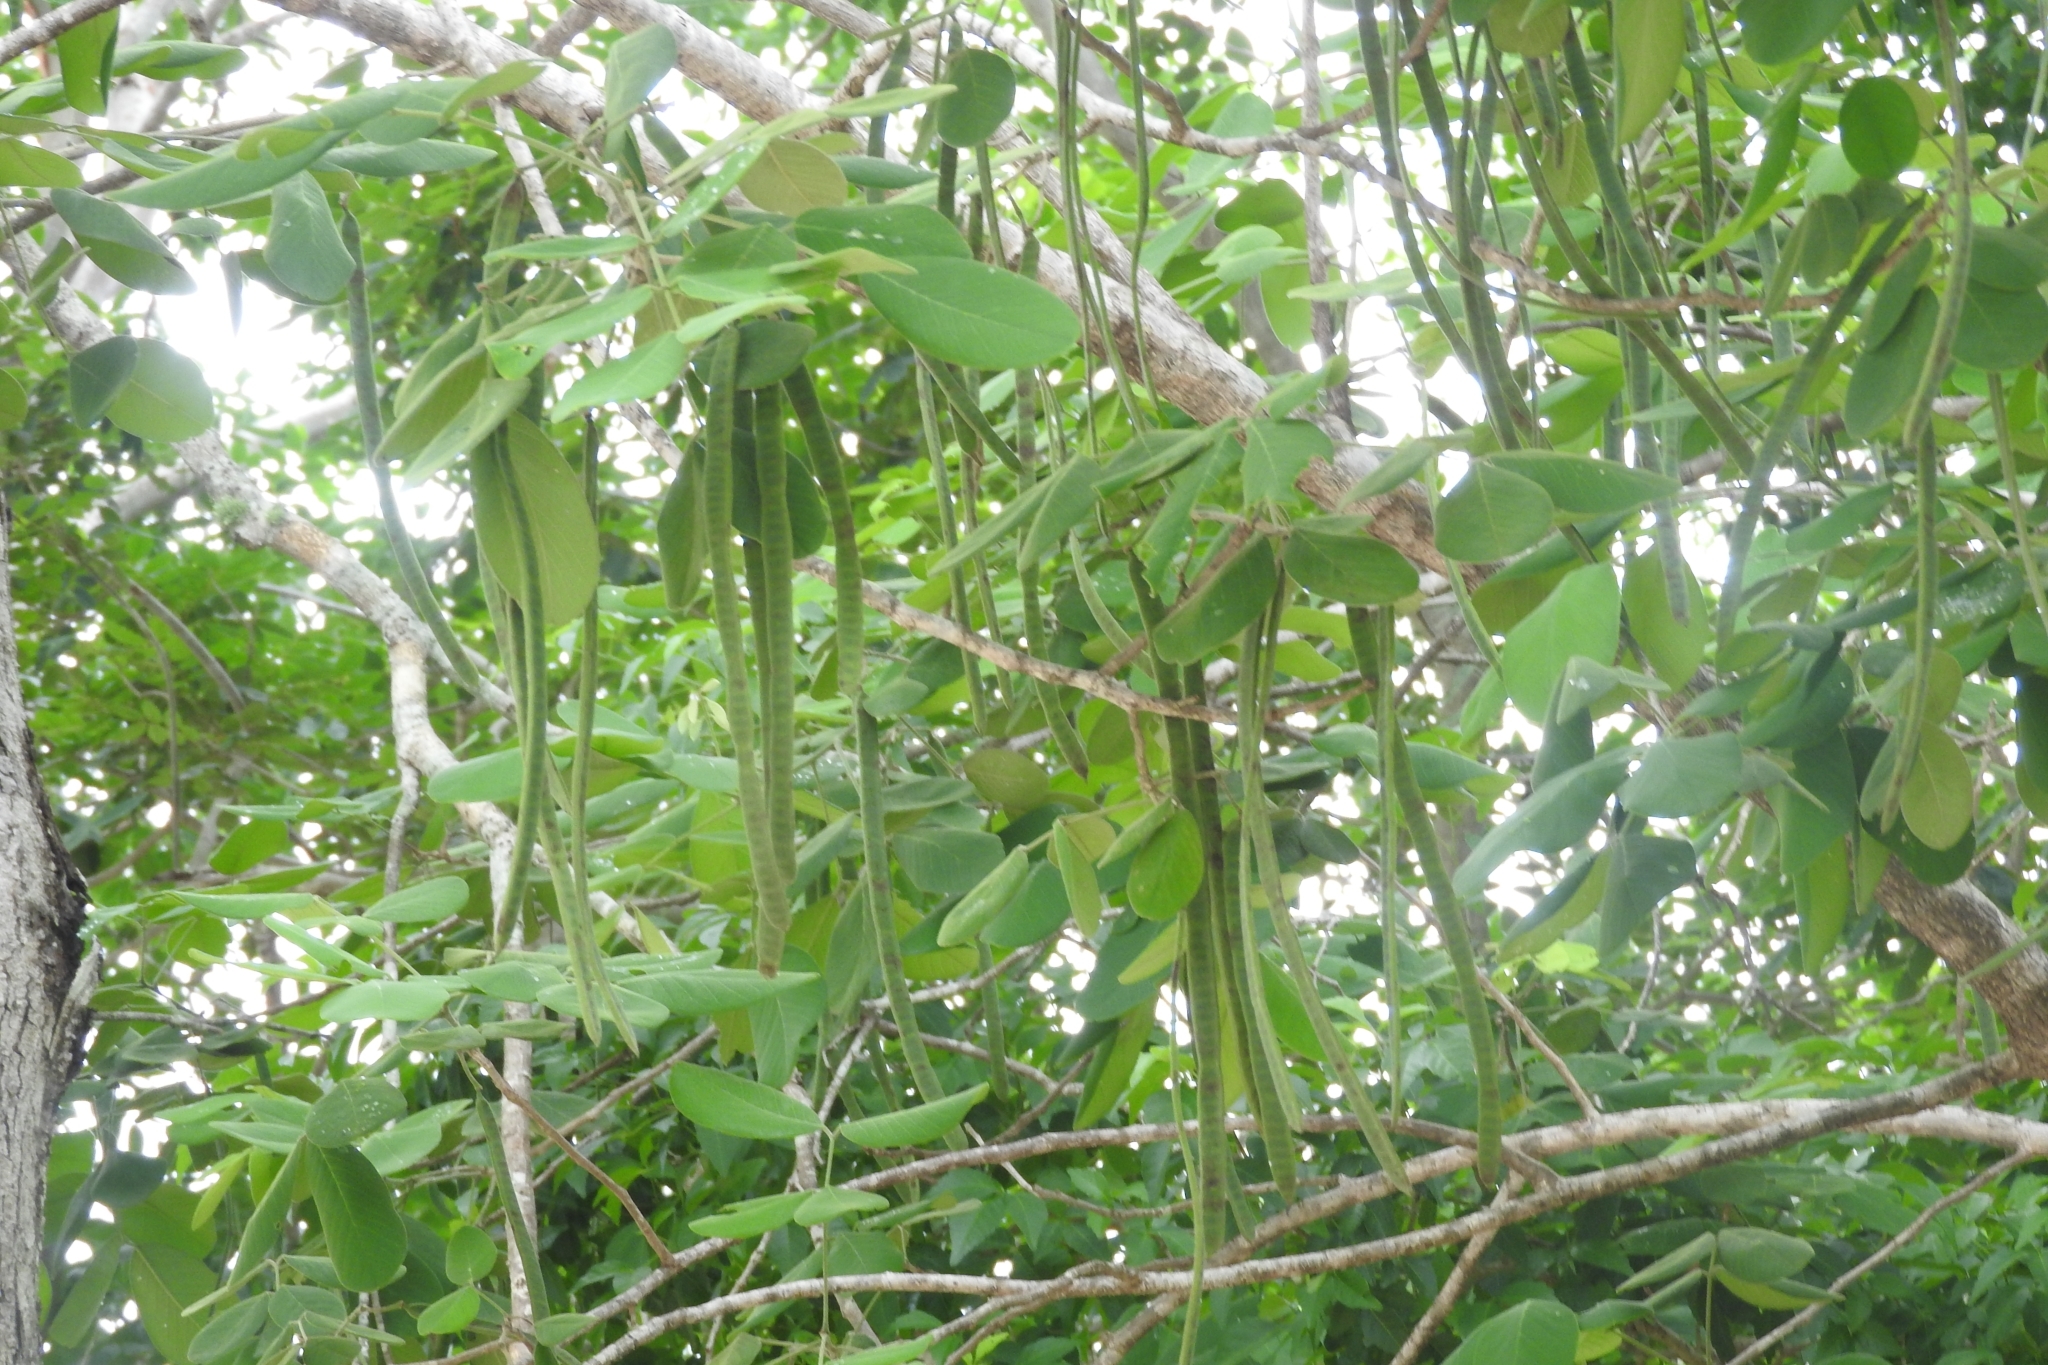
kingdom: Plantae
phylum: Tracheophyta
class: Magnoliopsida
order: Fabales
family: Fabaceae
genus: Senna
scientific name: Senna atomaria
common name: Flor de san jose
